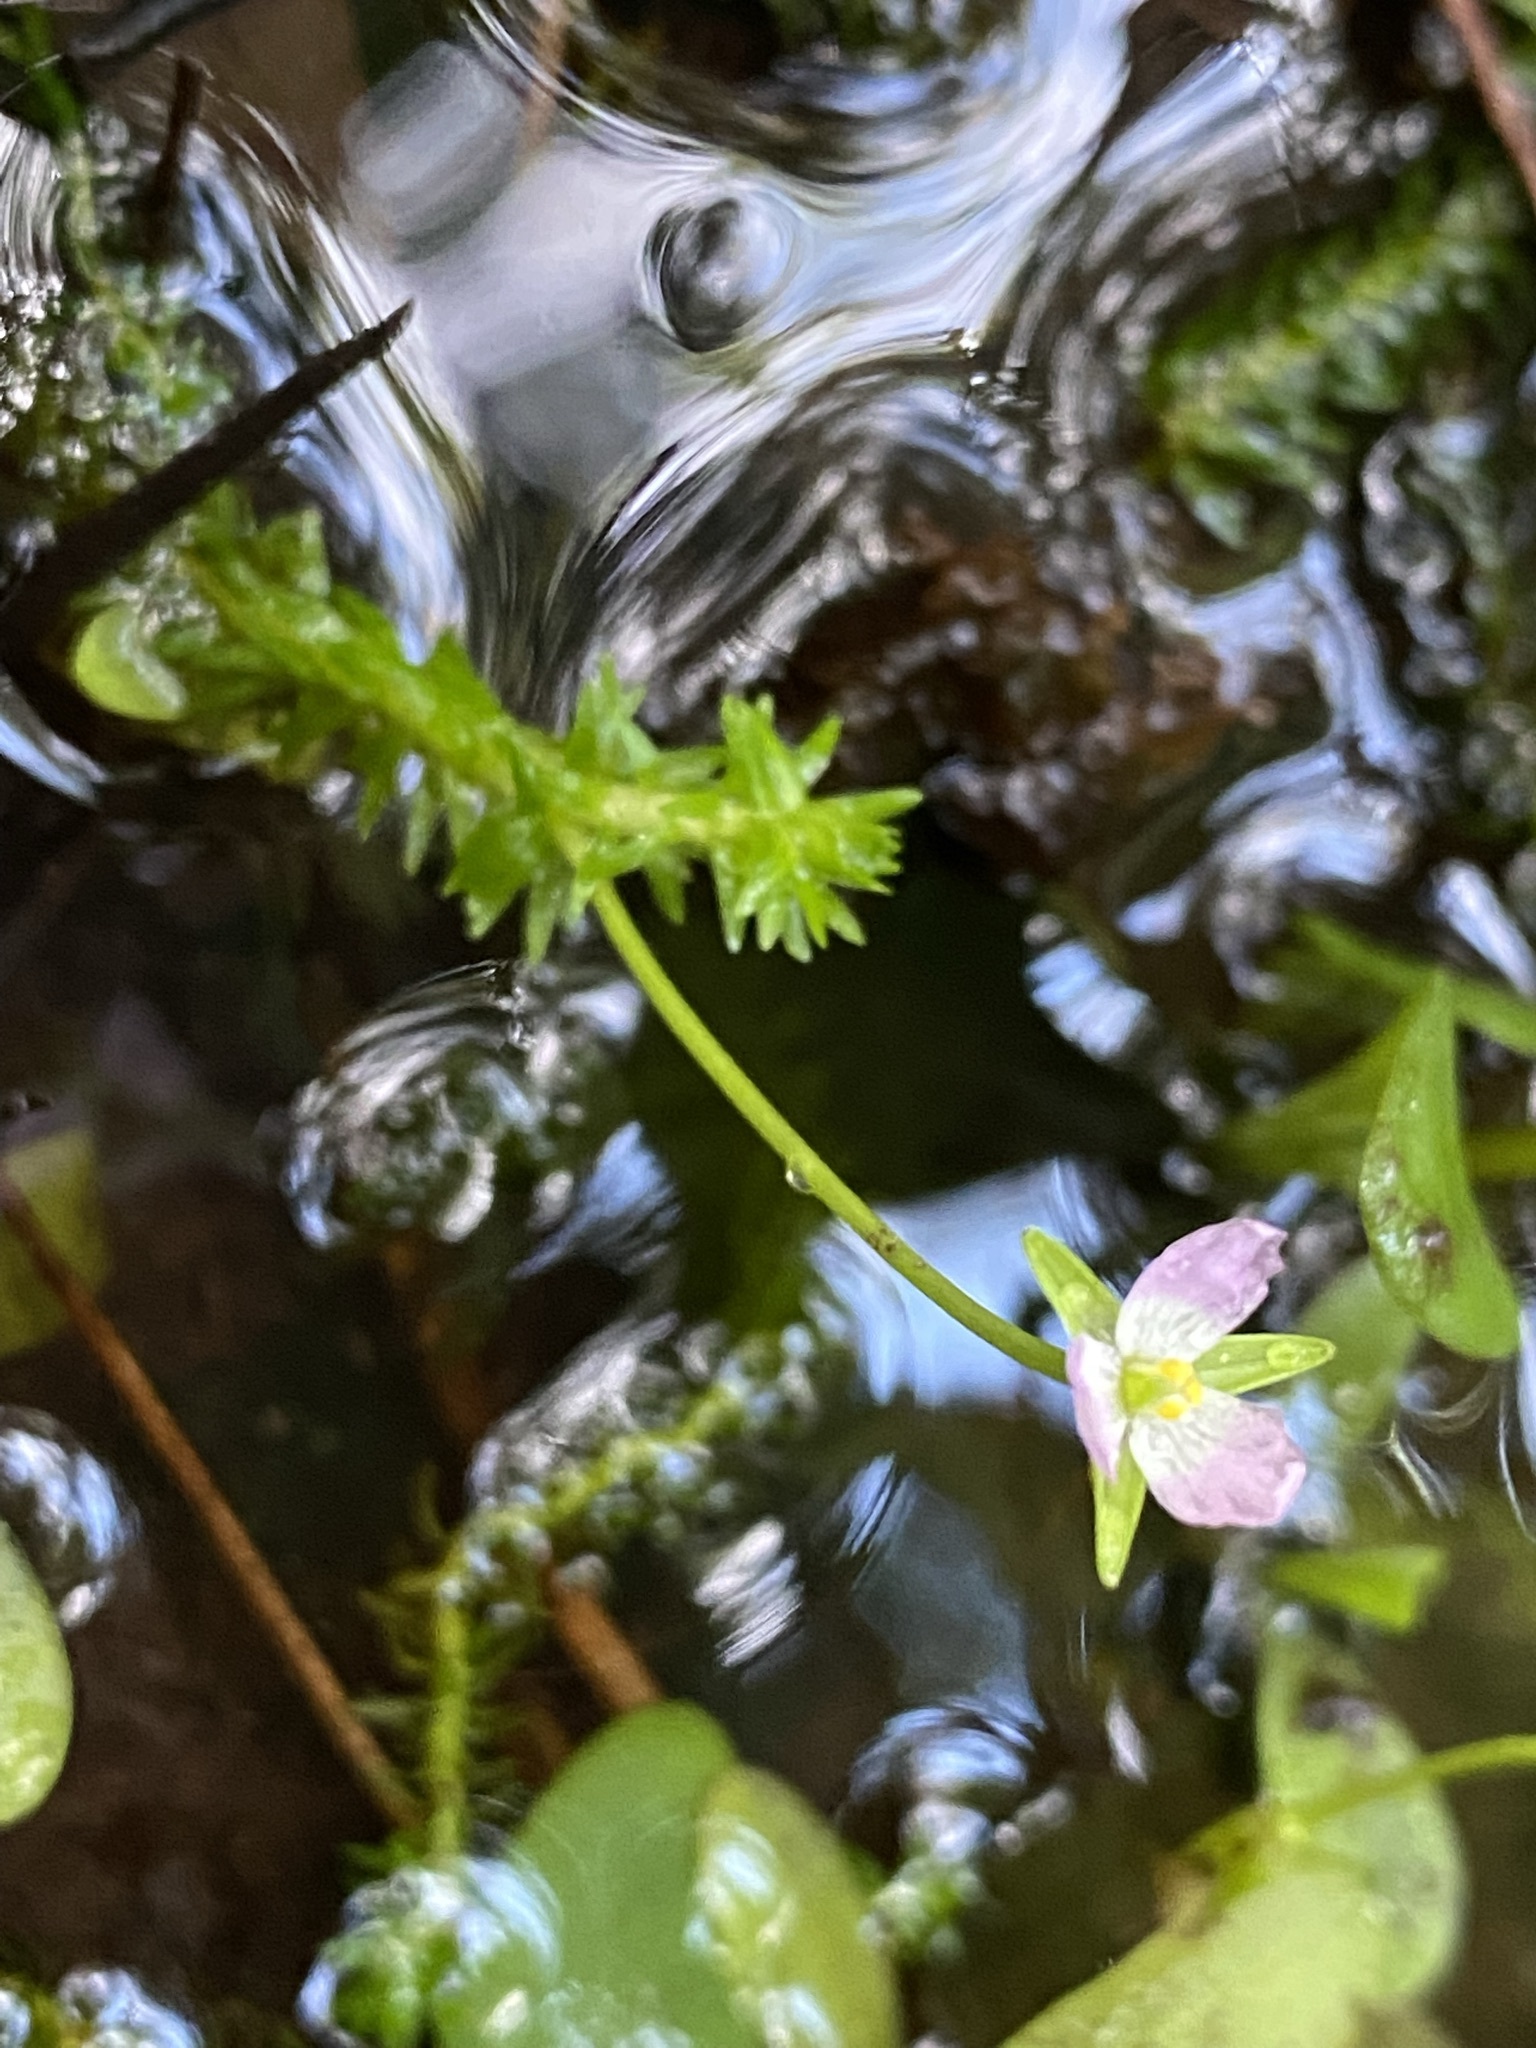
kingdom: Plantae
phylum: Tracheophyta
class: Liliopsida
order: Poales
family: Mayacaceae
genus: Mayaca
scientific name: Mayaca fluviatilis
